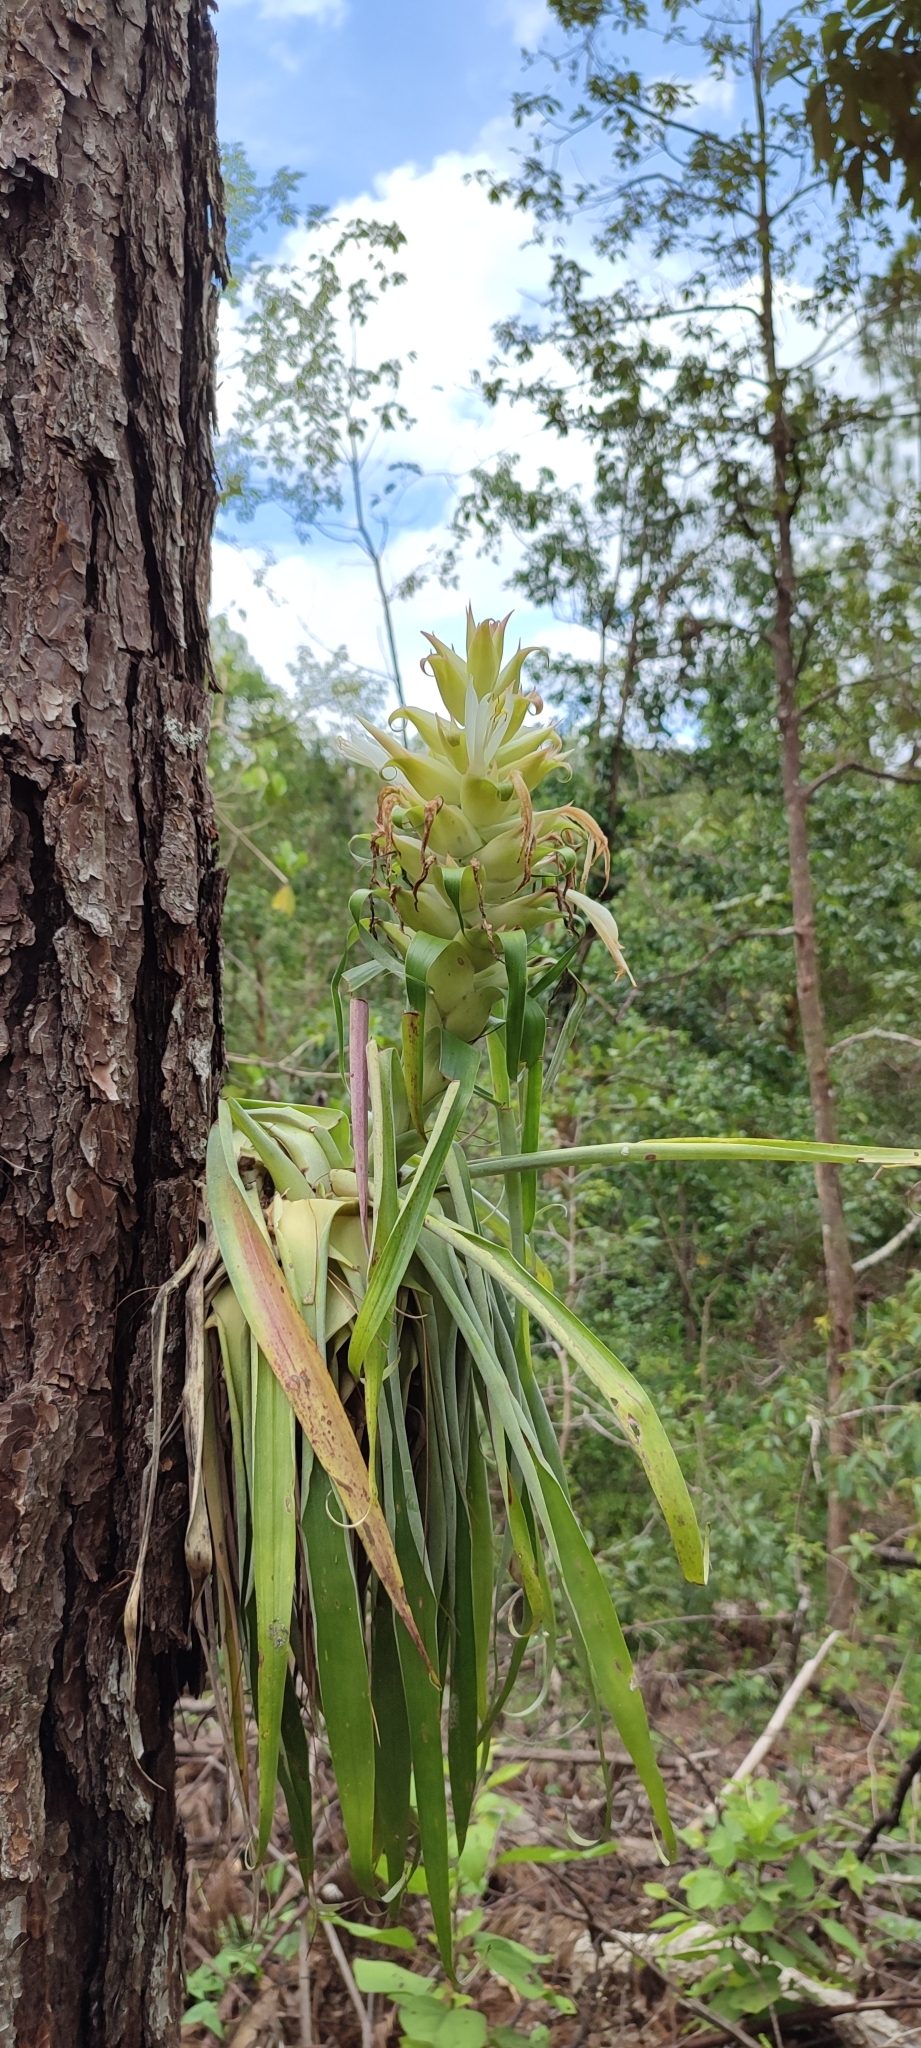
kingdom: Plantae
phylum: Tracheophyta
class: Liliopsida
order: Poales
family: Bromeliaceae
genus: Tillandsia
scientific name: Tillandsia tillii
